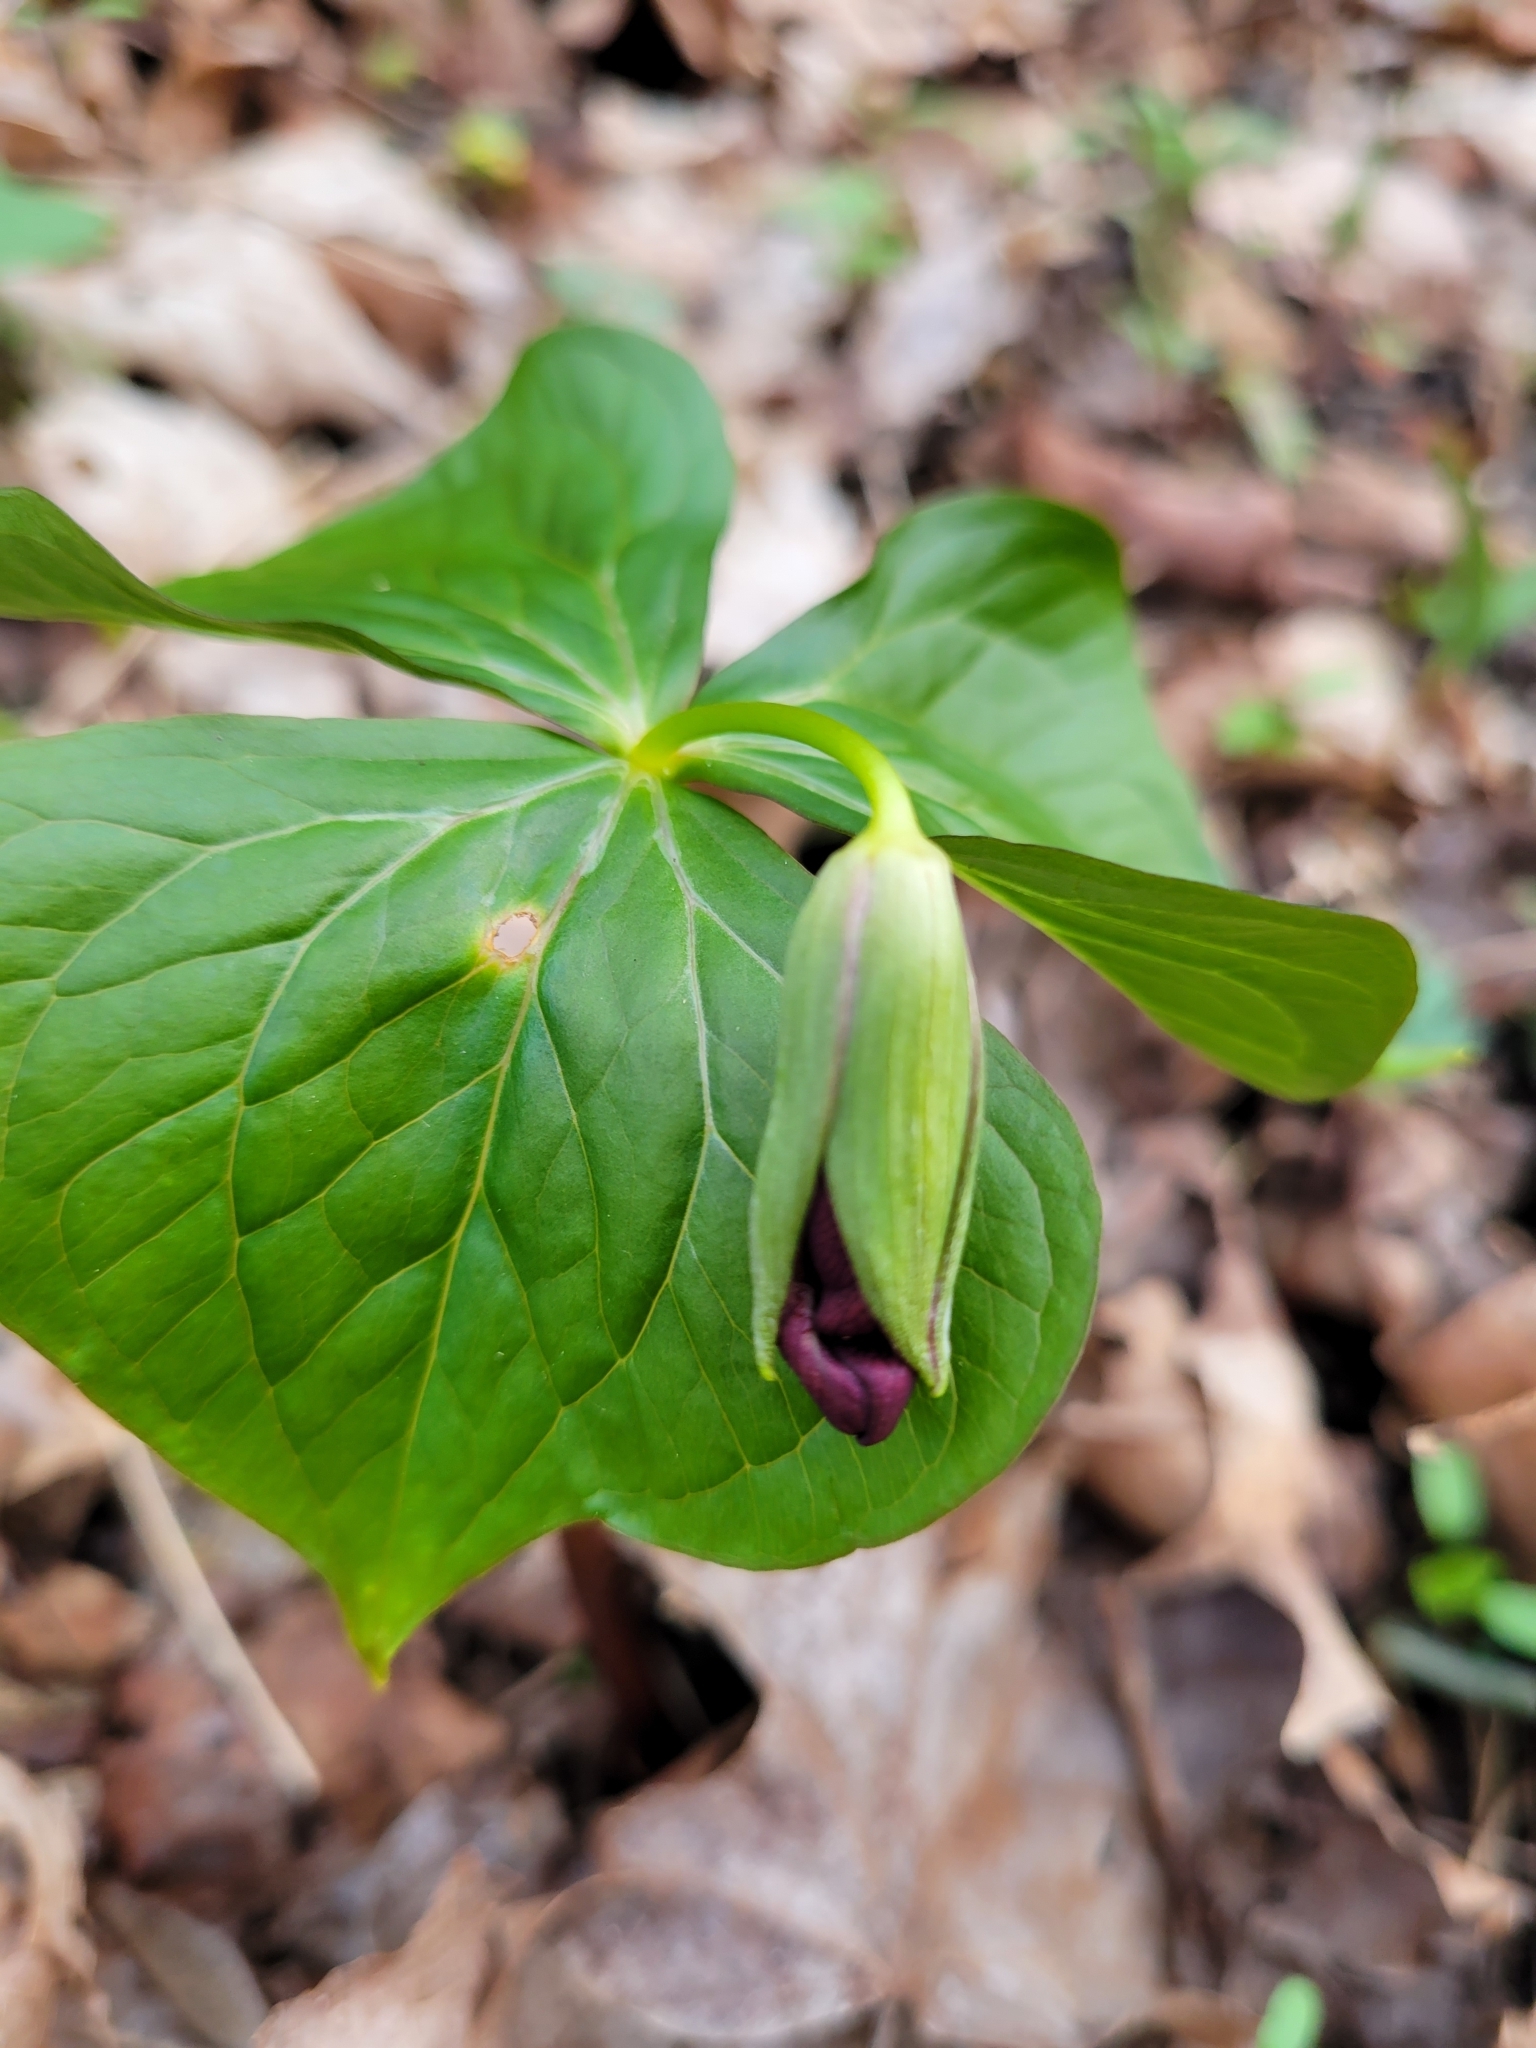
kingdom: Plantae
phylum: Tracheophyta
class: Liliopsida
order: Liliales
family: Melanthiaceae
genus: Trillium
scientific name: Trillium erectum
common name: Purple trillium
